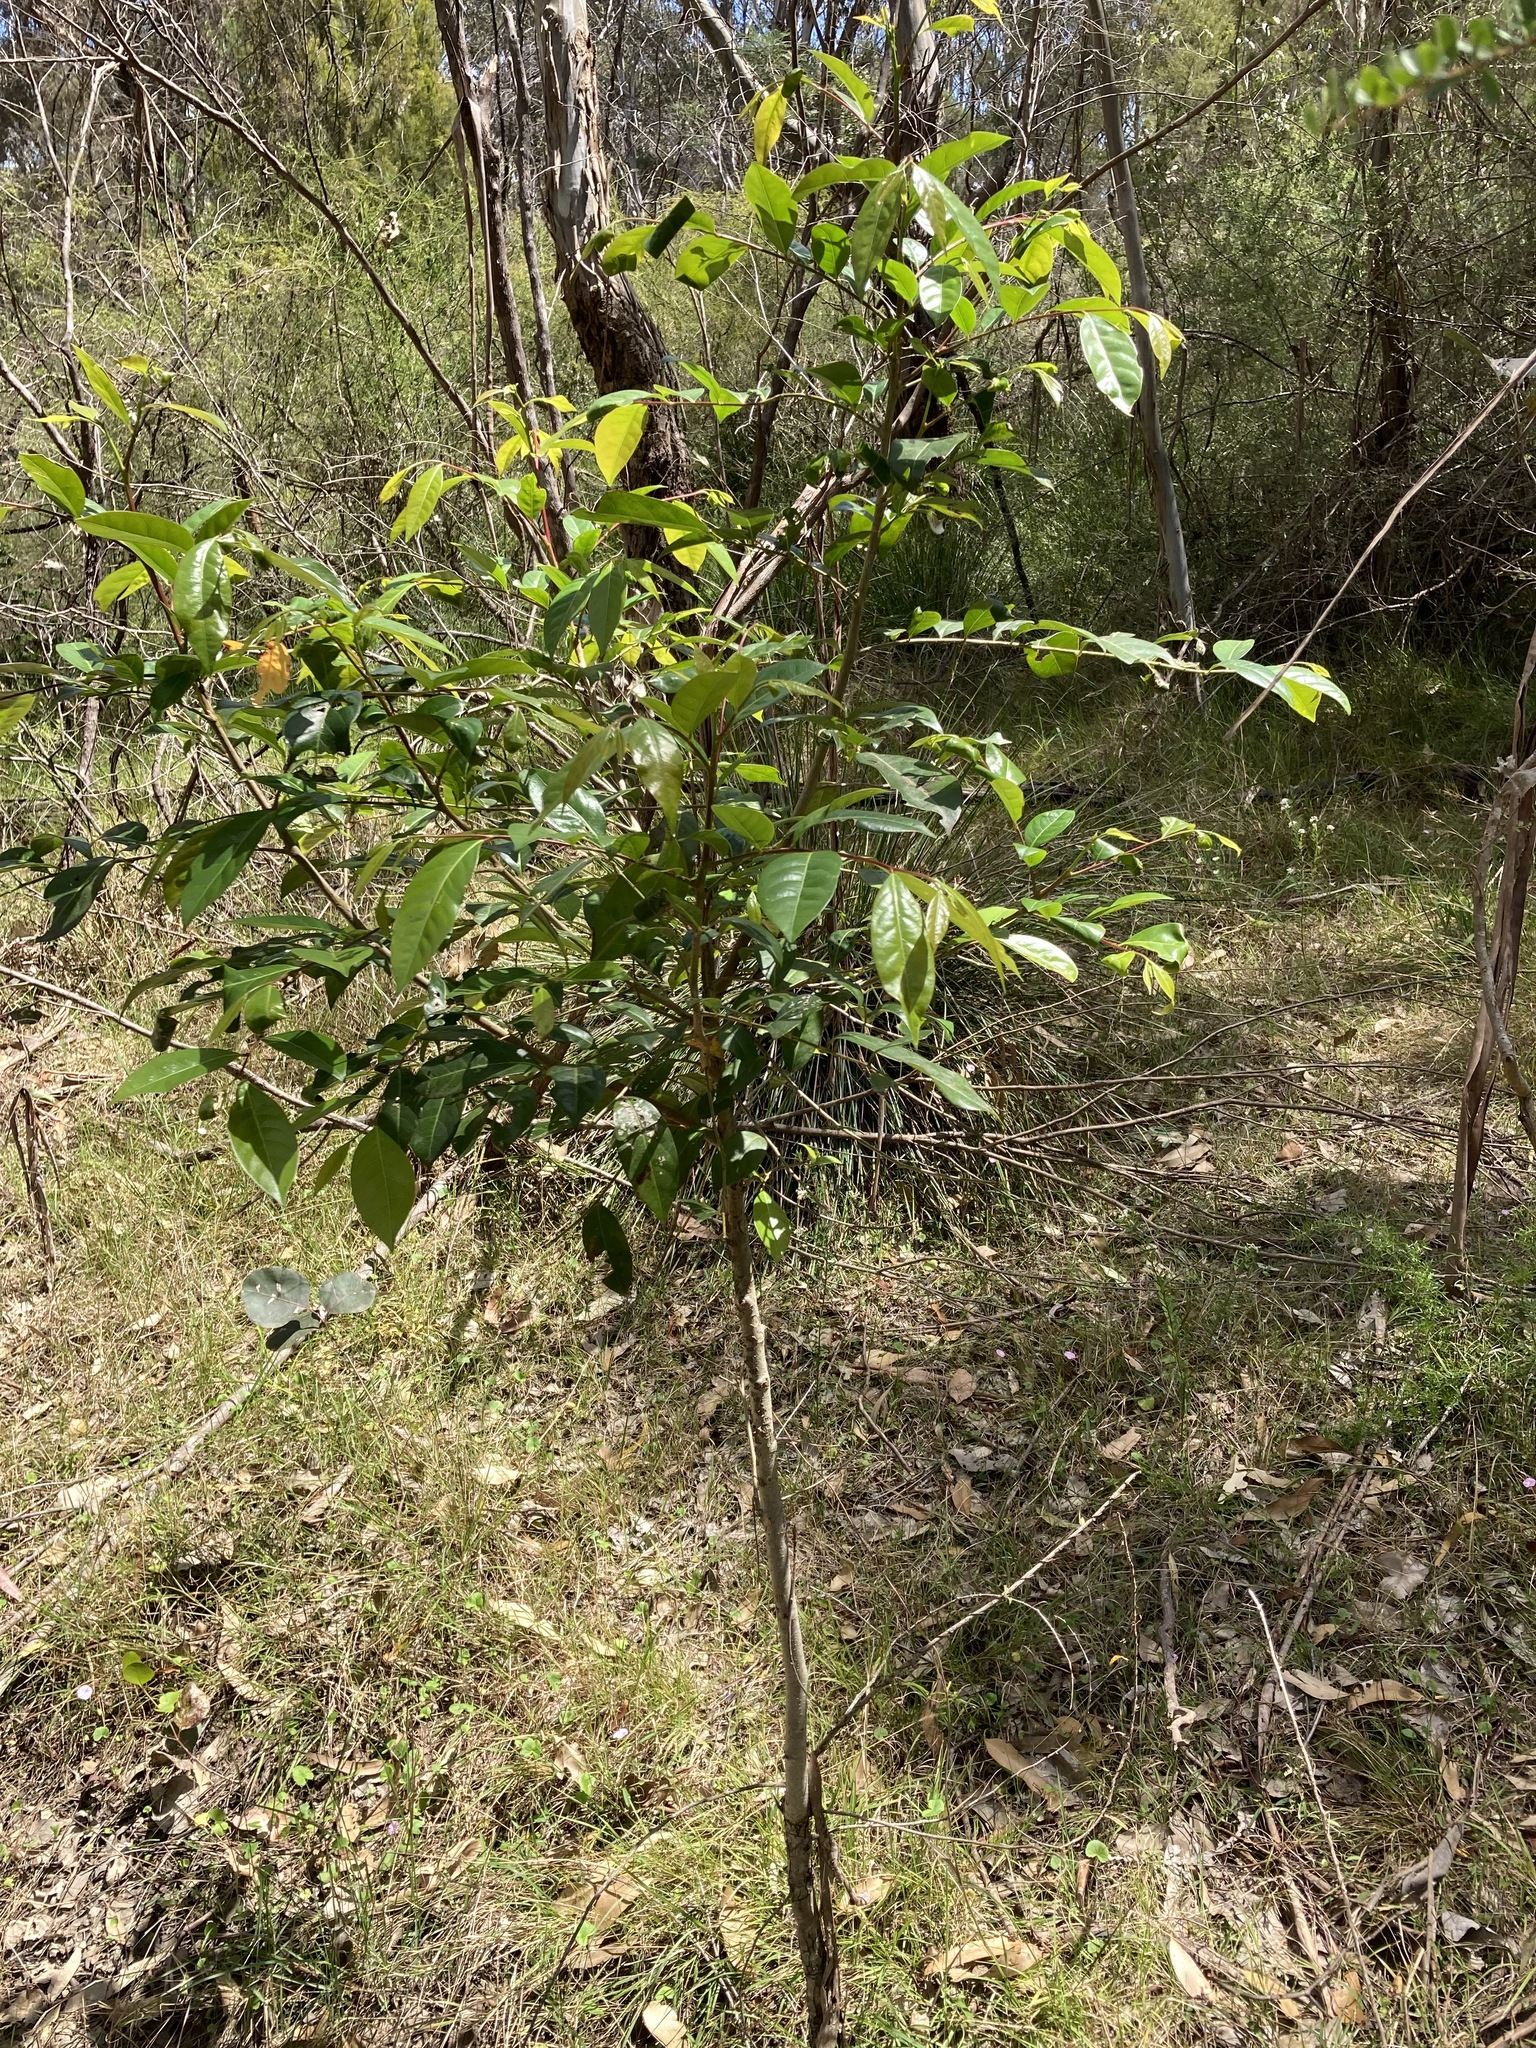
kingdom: Plantae
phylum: Tracheophyta
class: Magnoliopsida
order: Malpighiales
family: Phyllanthaceae
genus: Glochidion
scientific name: Glochidion ferdinandi
